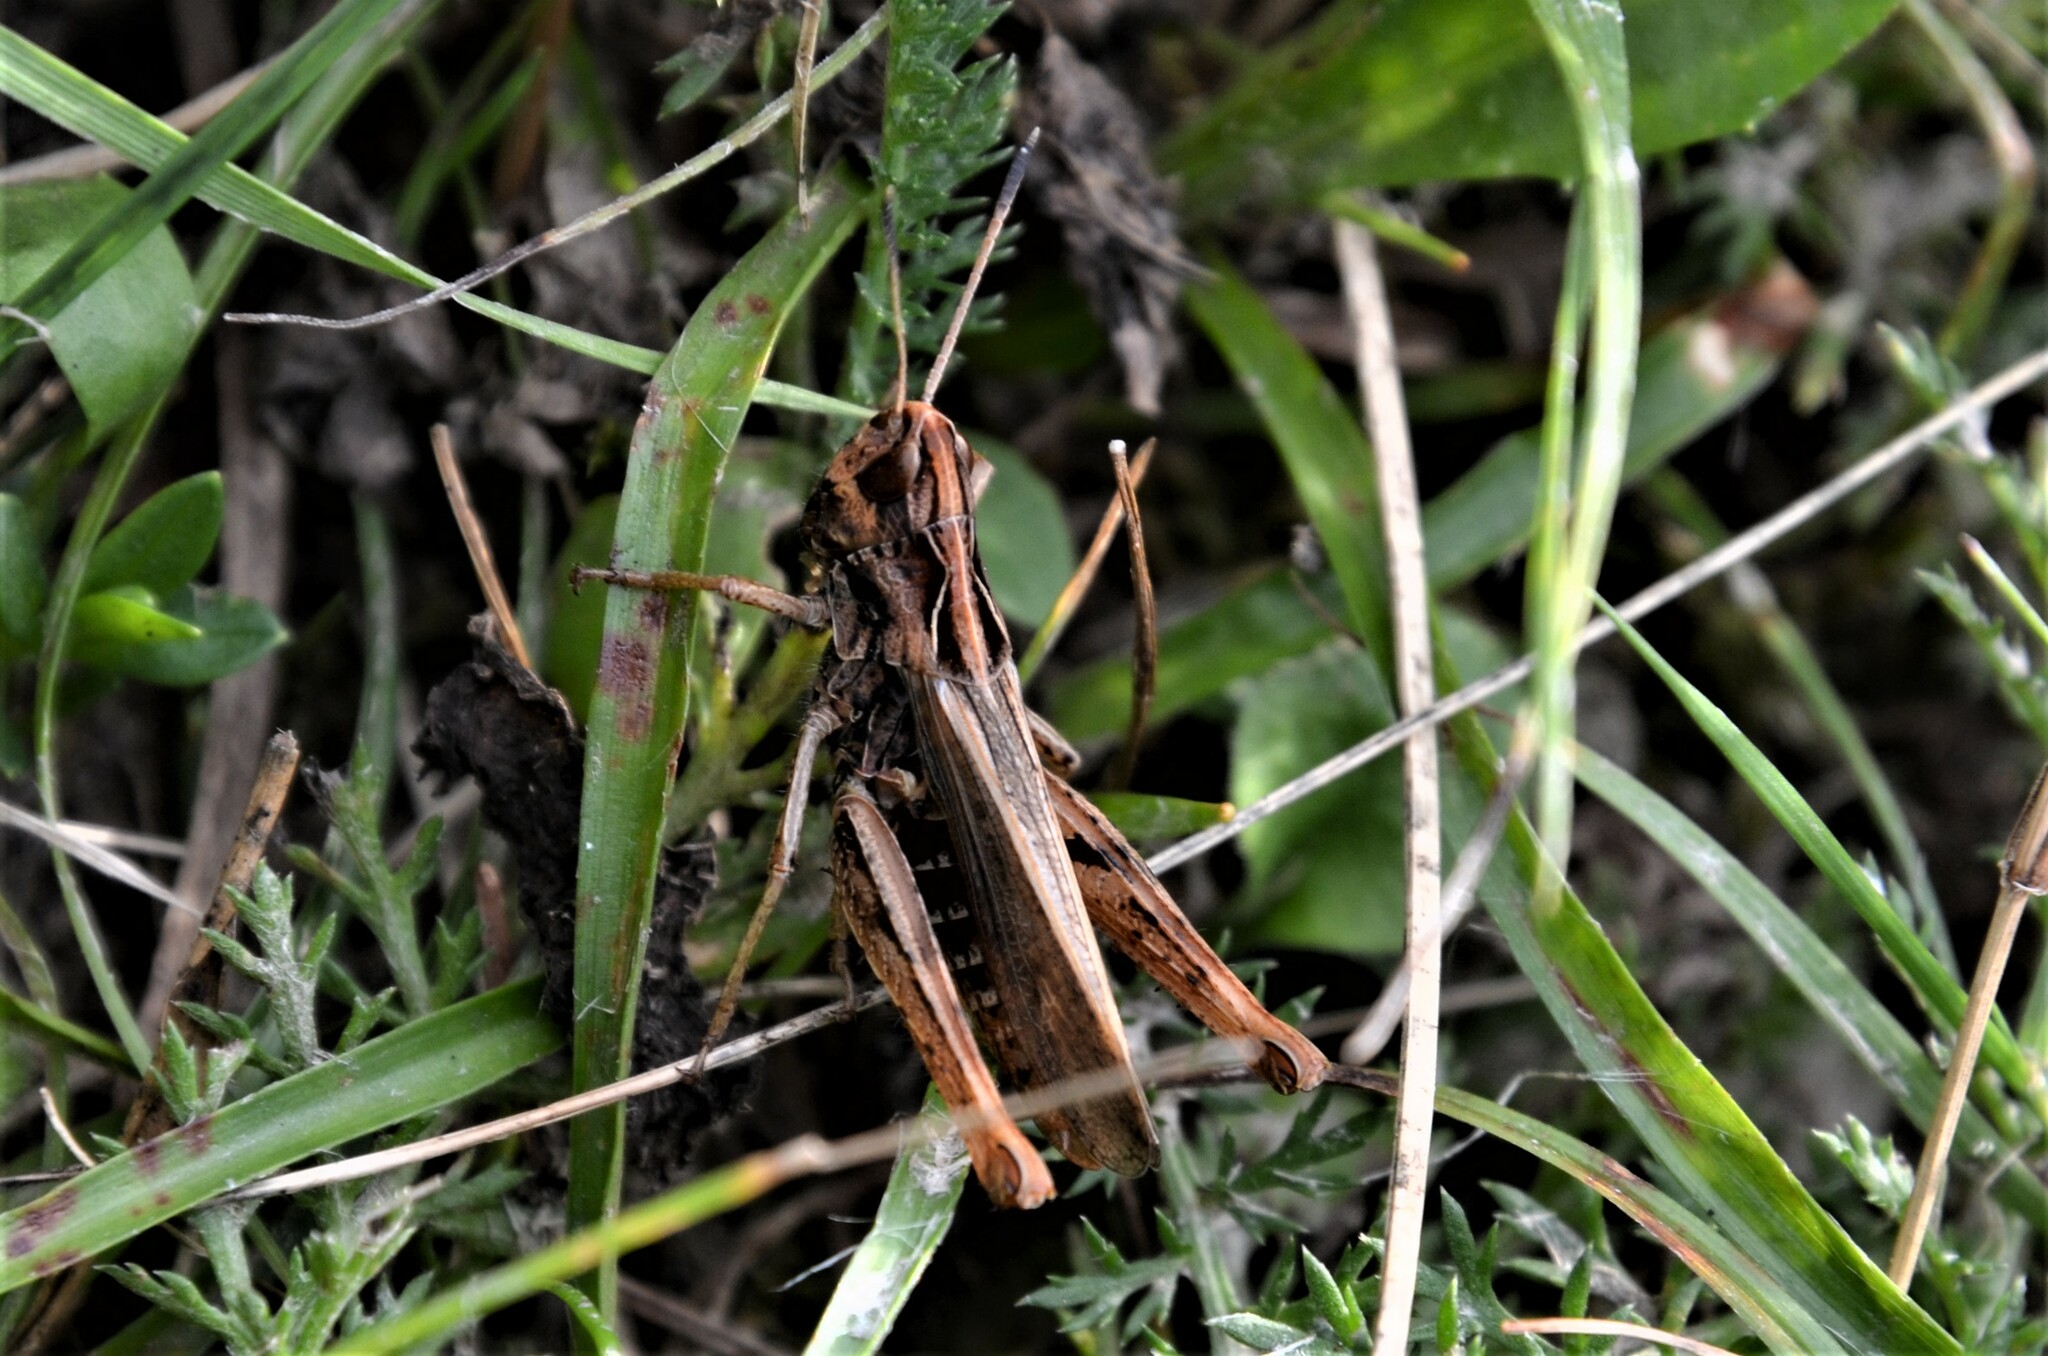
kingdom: Animalia
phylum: Arthropoda
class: Insecta
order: Orthoptera
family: Acrididae
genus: Gomphocerippus
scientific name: Gomphocerippus rufus
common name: Rufous grasshopper
